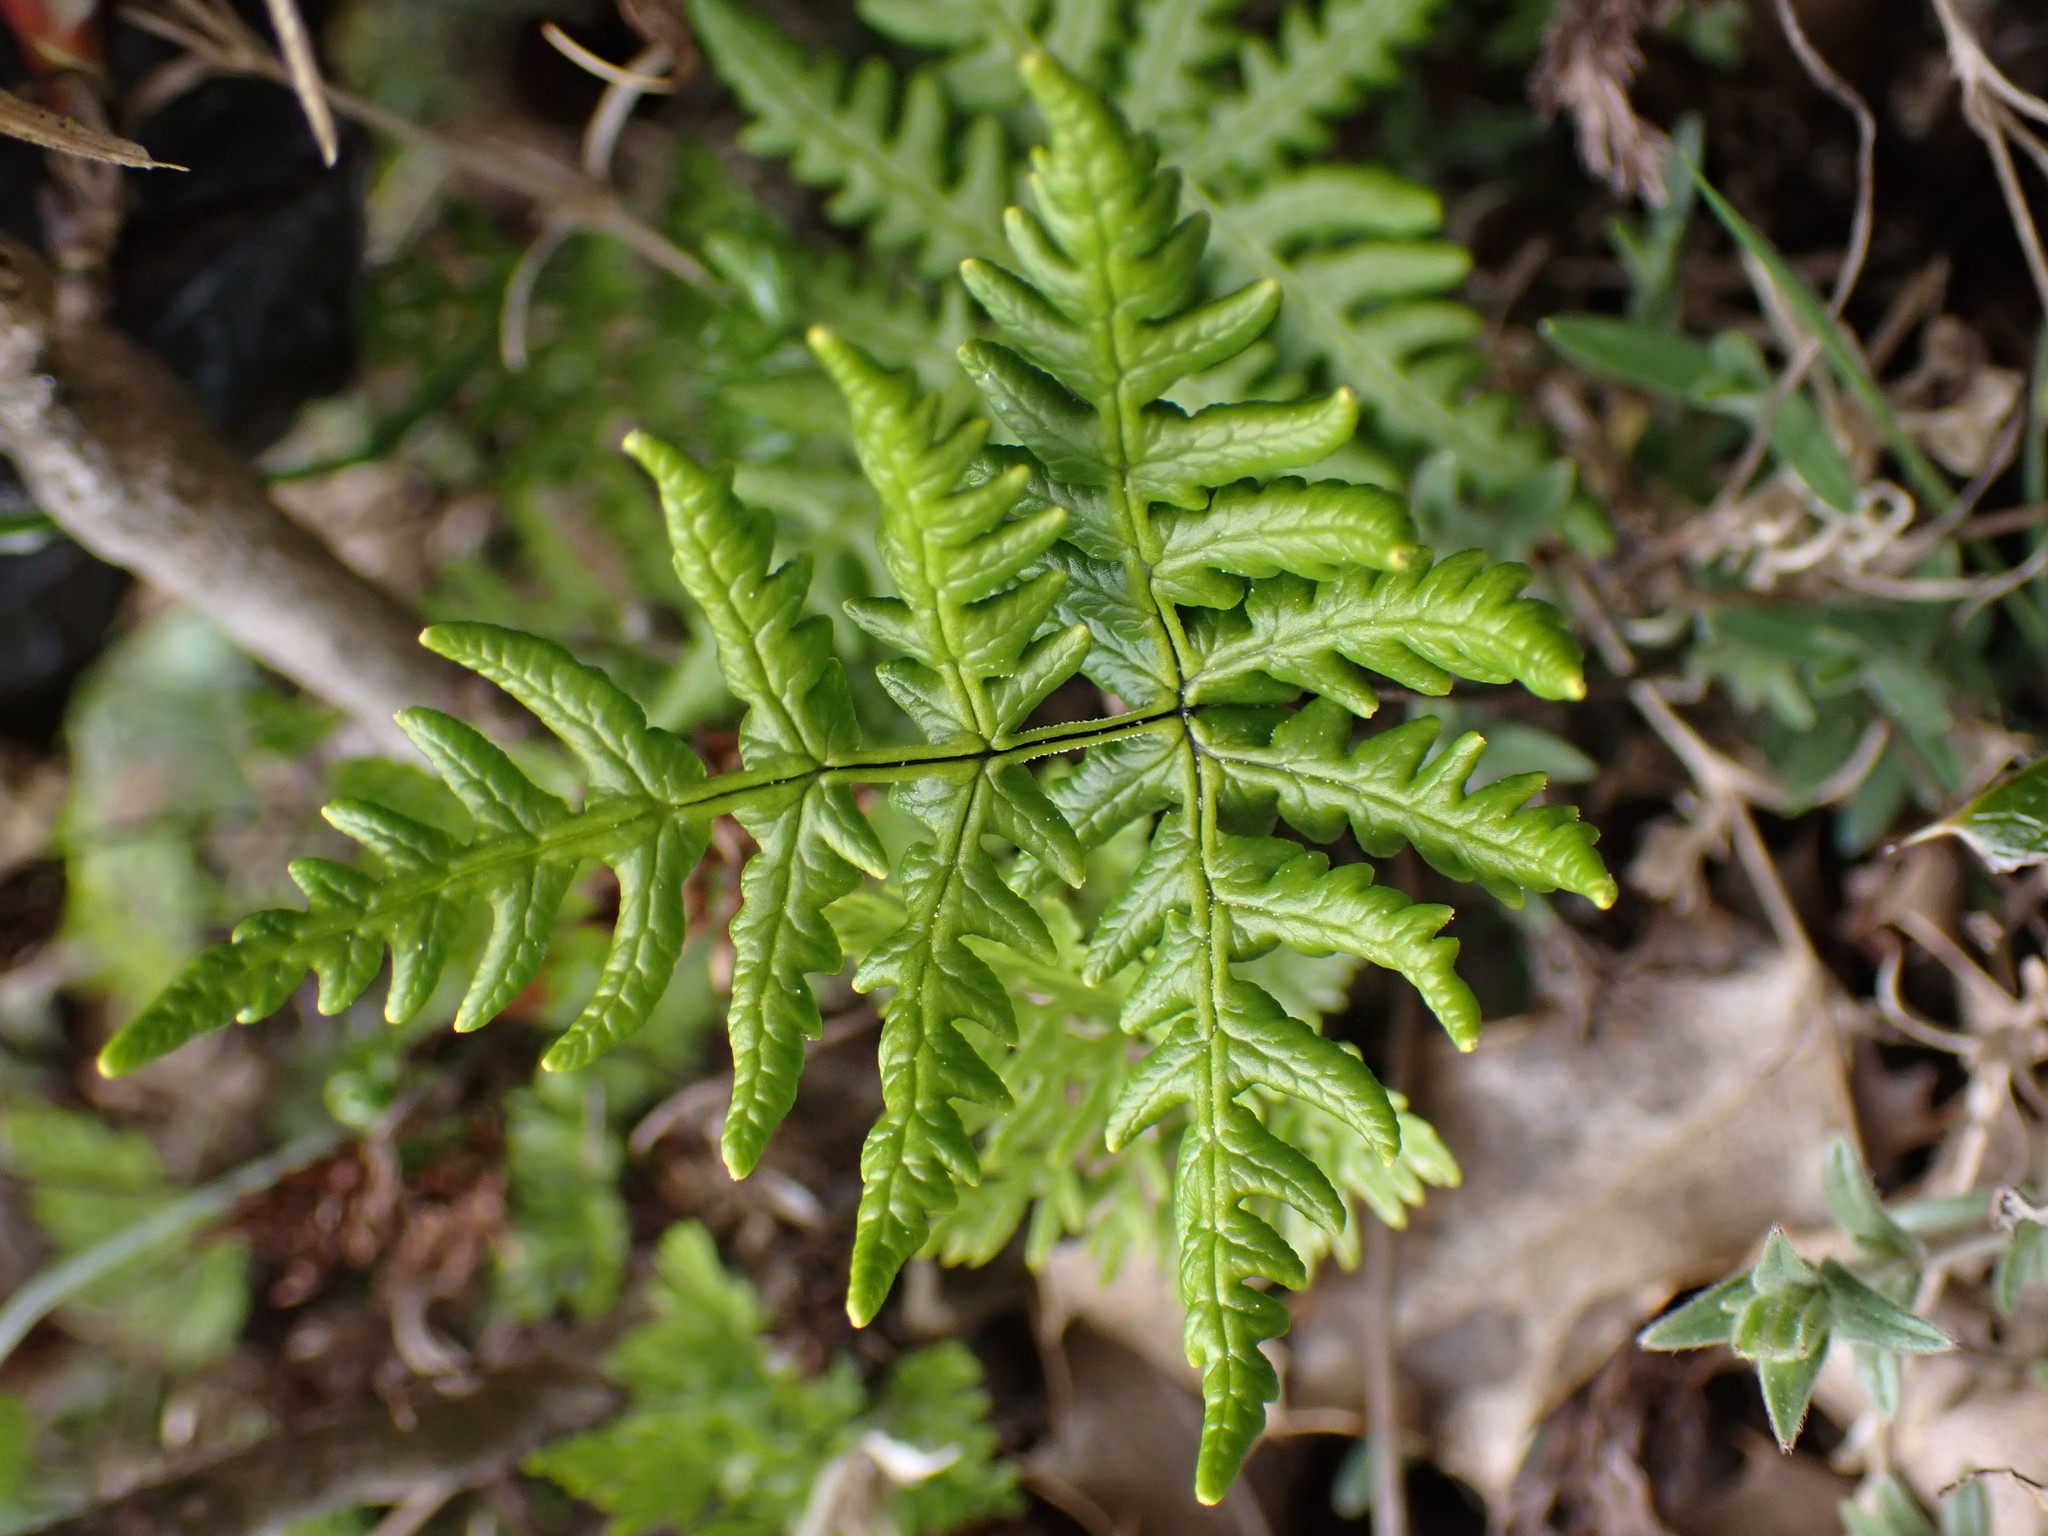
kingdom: Plantae
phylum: Tracheophyta
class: Polypodiopsida
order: Polypodiales
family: Pteridaceae
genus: Pentagramma
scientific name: Pentagramma triangularis
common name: Gold fern
